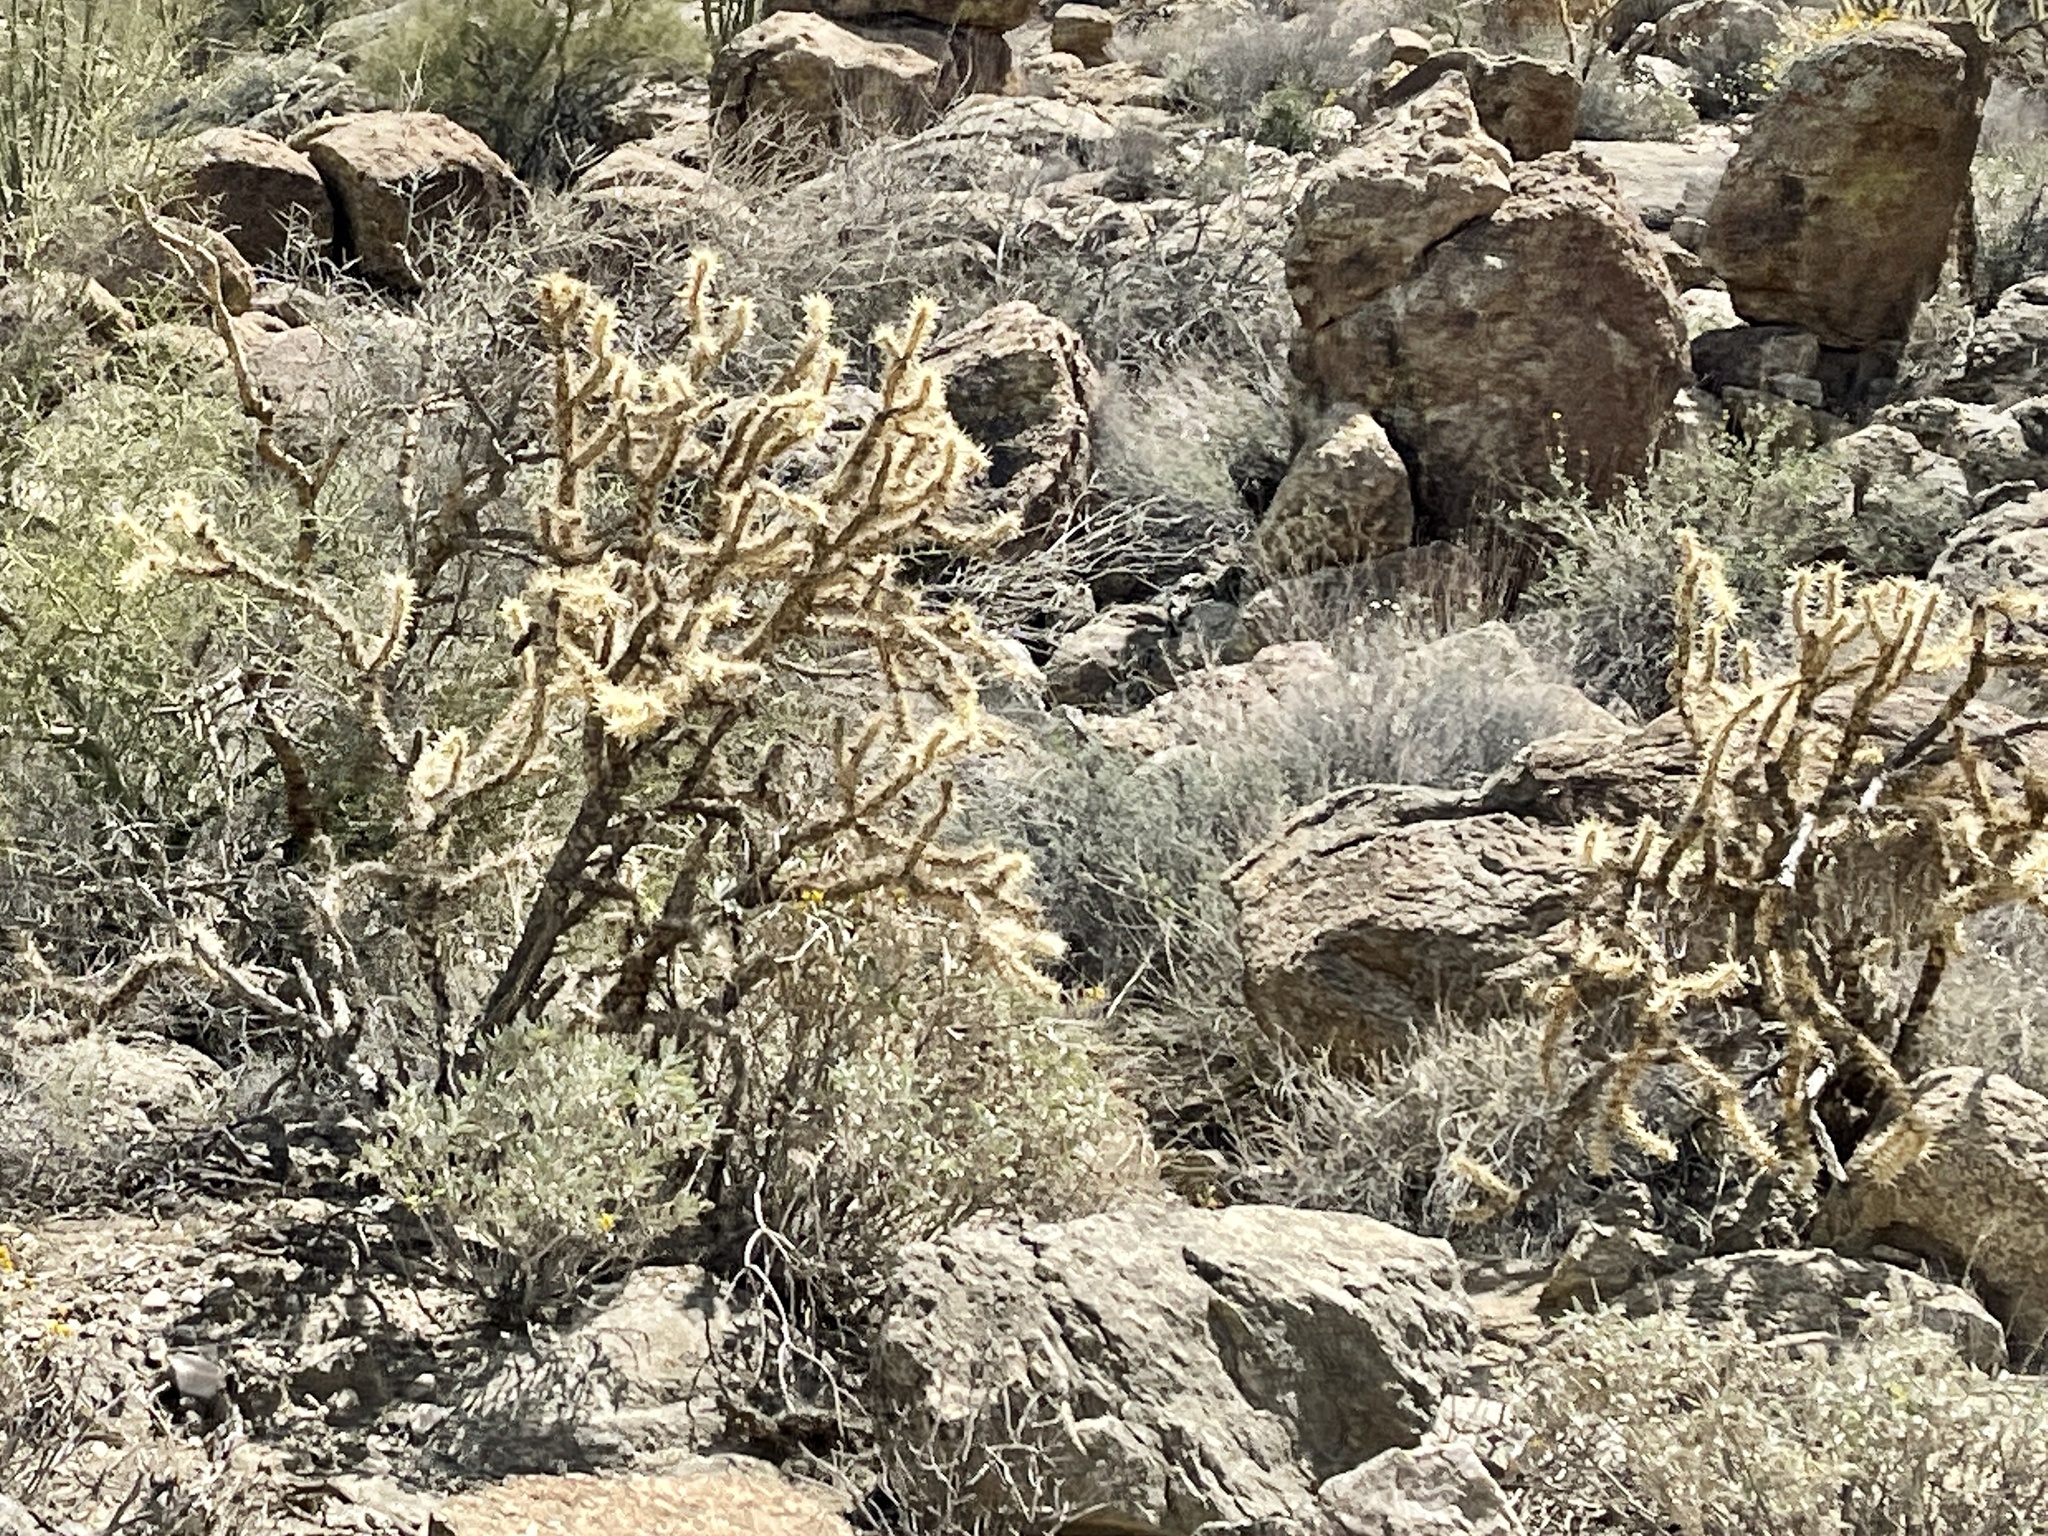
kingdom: Plantae
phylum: Tracheophyta
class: Magnoliopsida
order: Caryophyllales
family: Cactaceae
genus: Cylindropuntia
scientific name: Cylindropuntia acanthocarpa
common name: Buckhorn cholla
